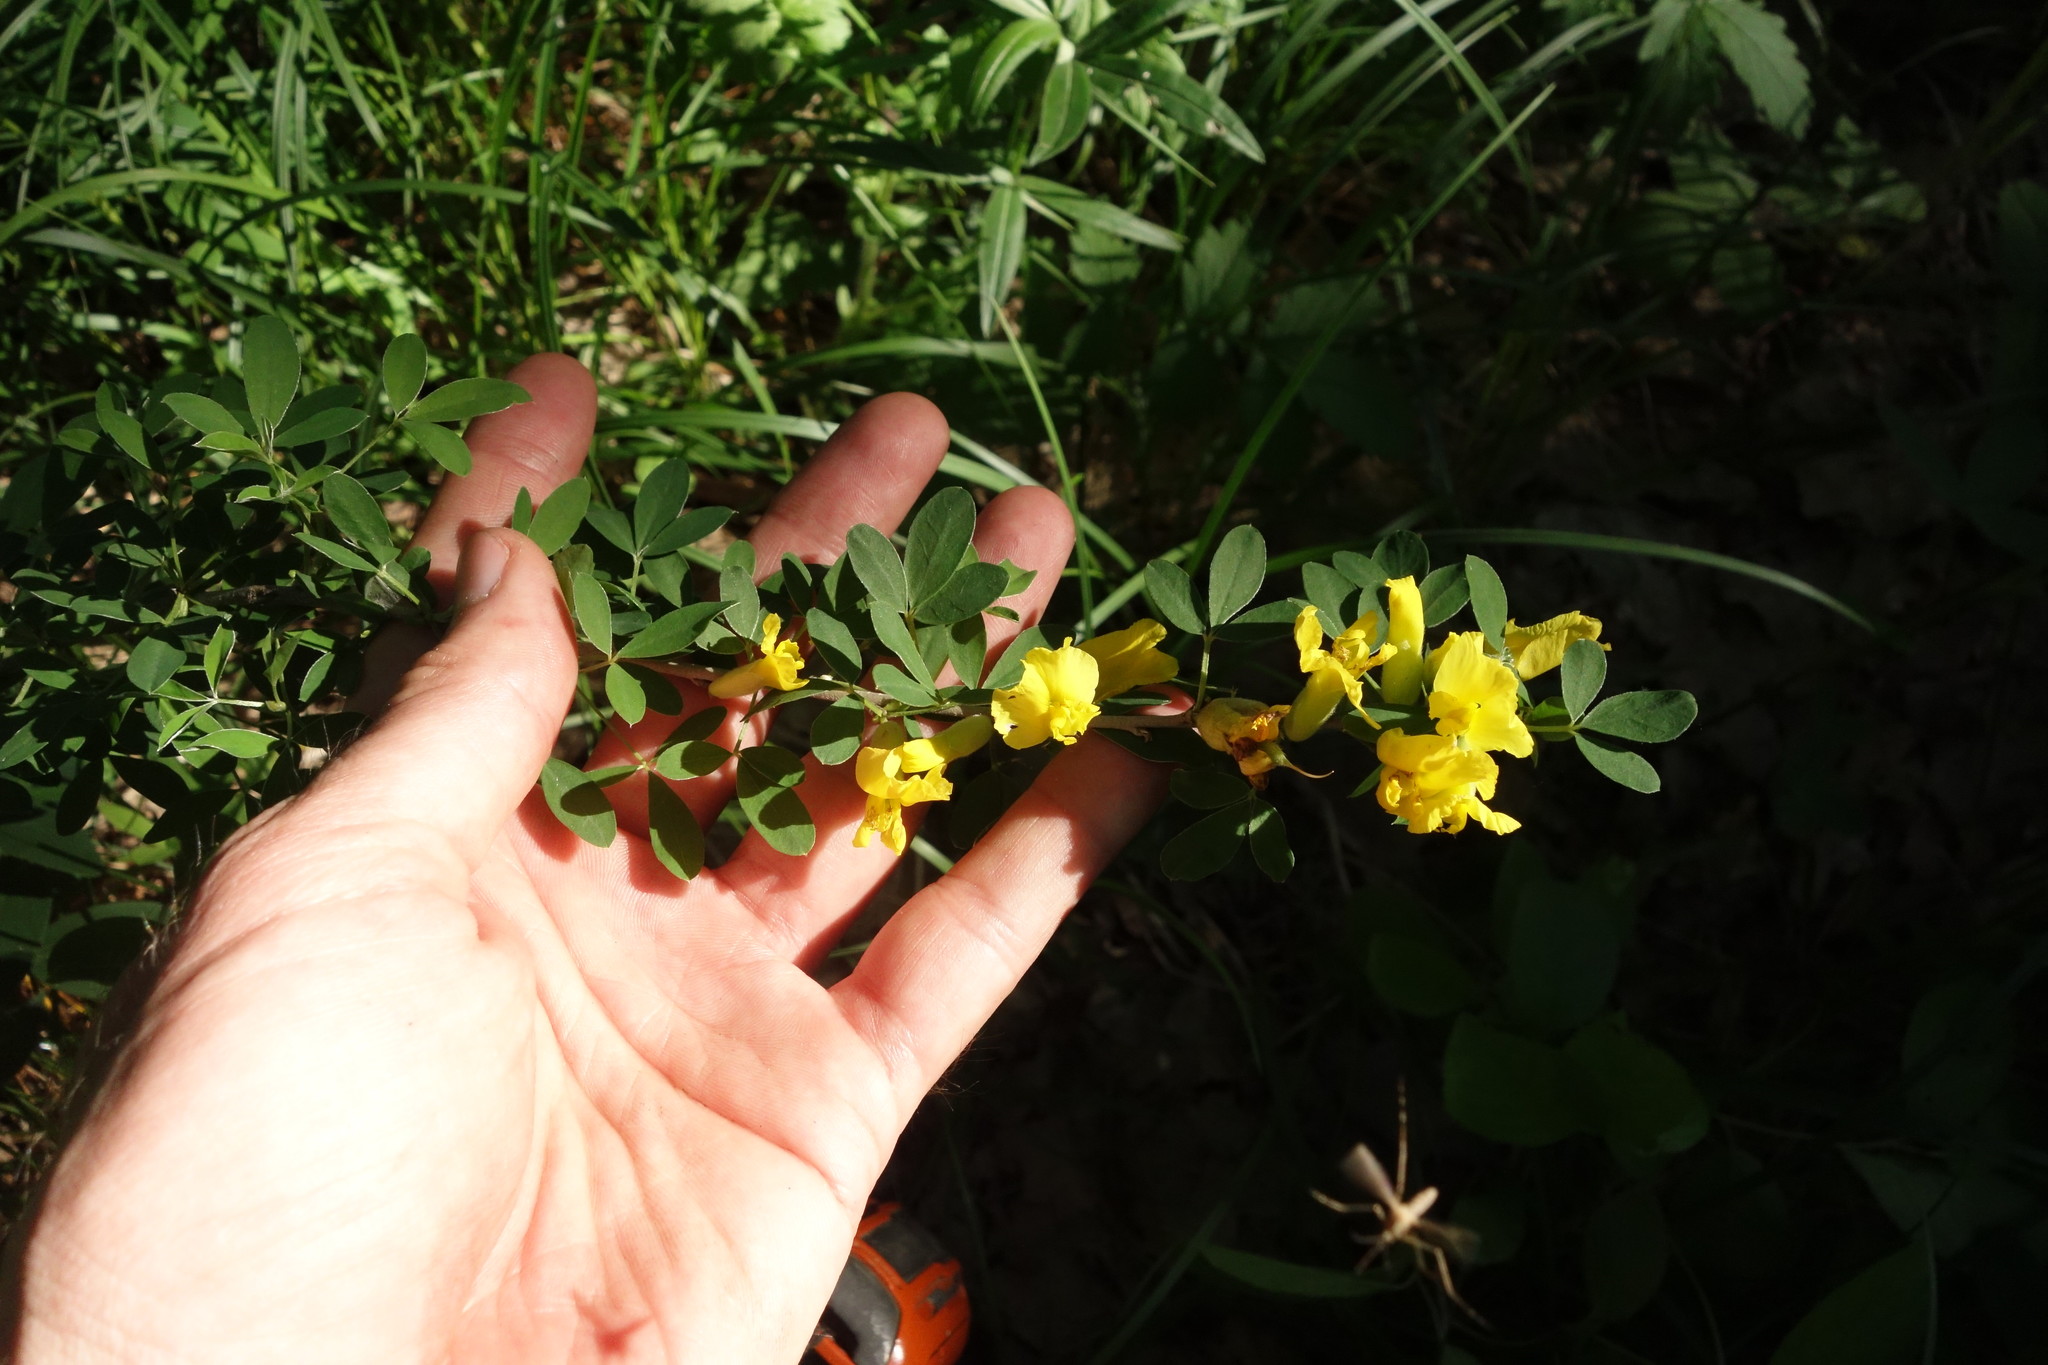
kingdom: Plantae
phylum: Tracheophyta
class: Magnoliopsida
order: Fabales
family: Fabaceae
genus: Chamaecytisus
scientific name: Chamaecytisus ruthenicus
